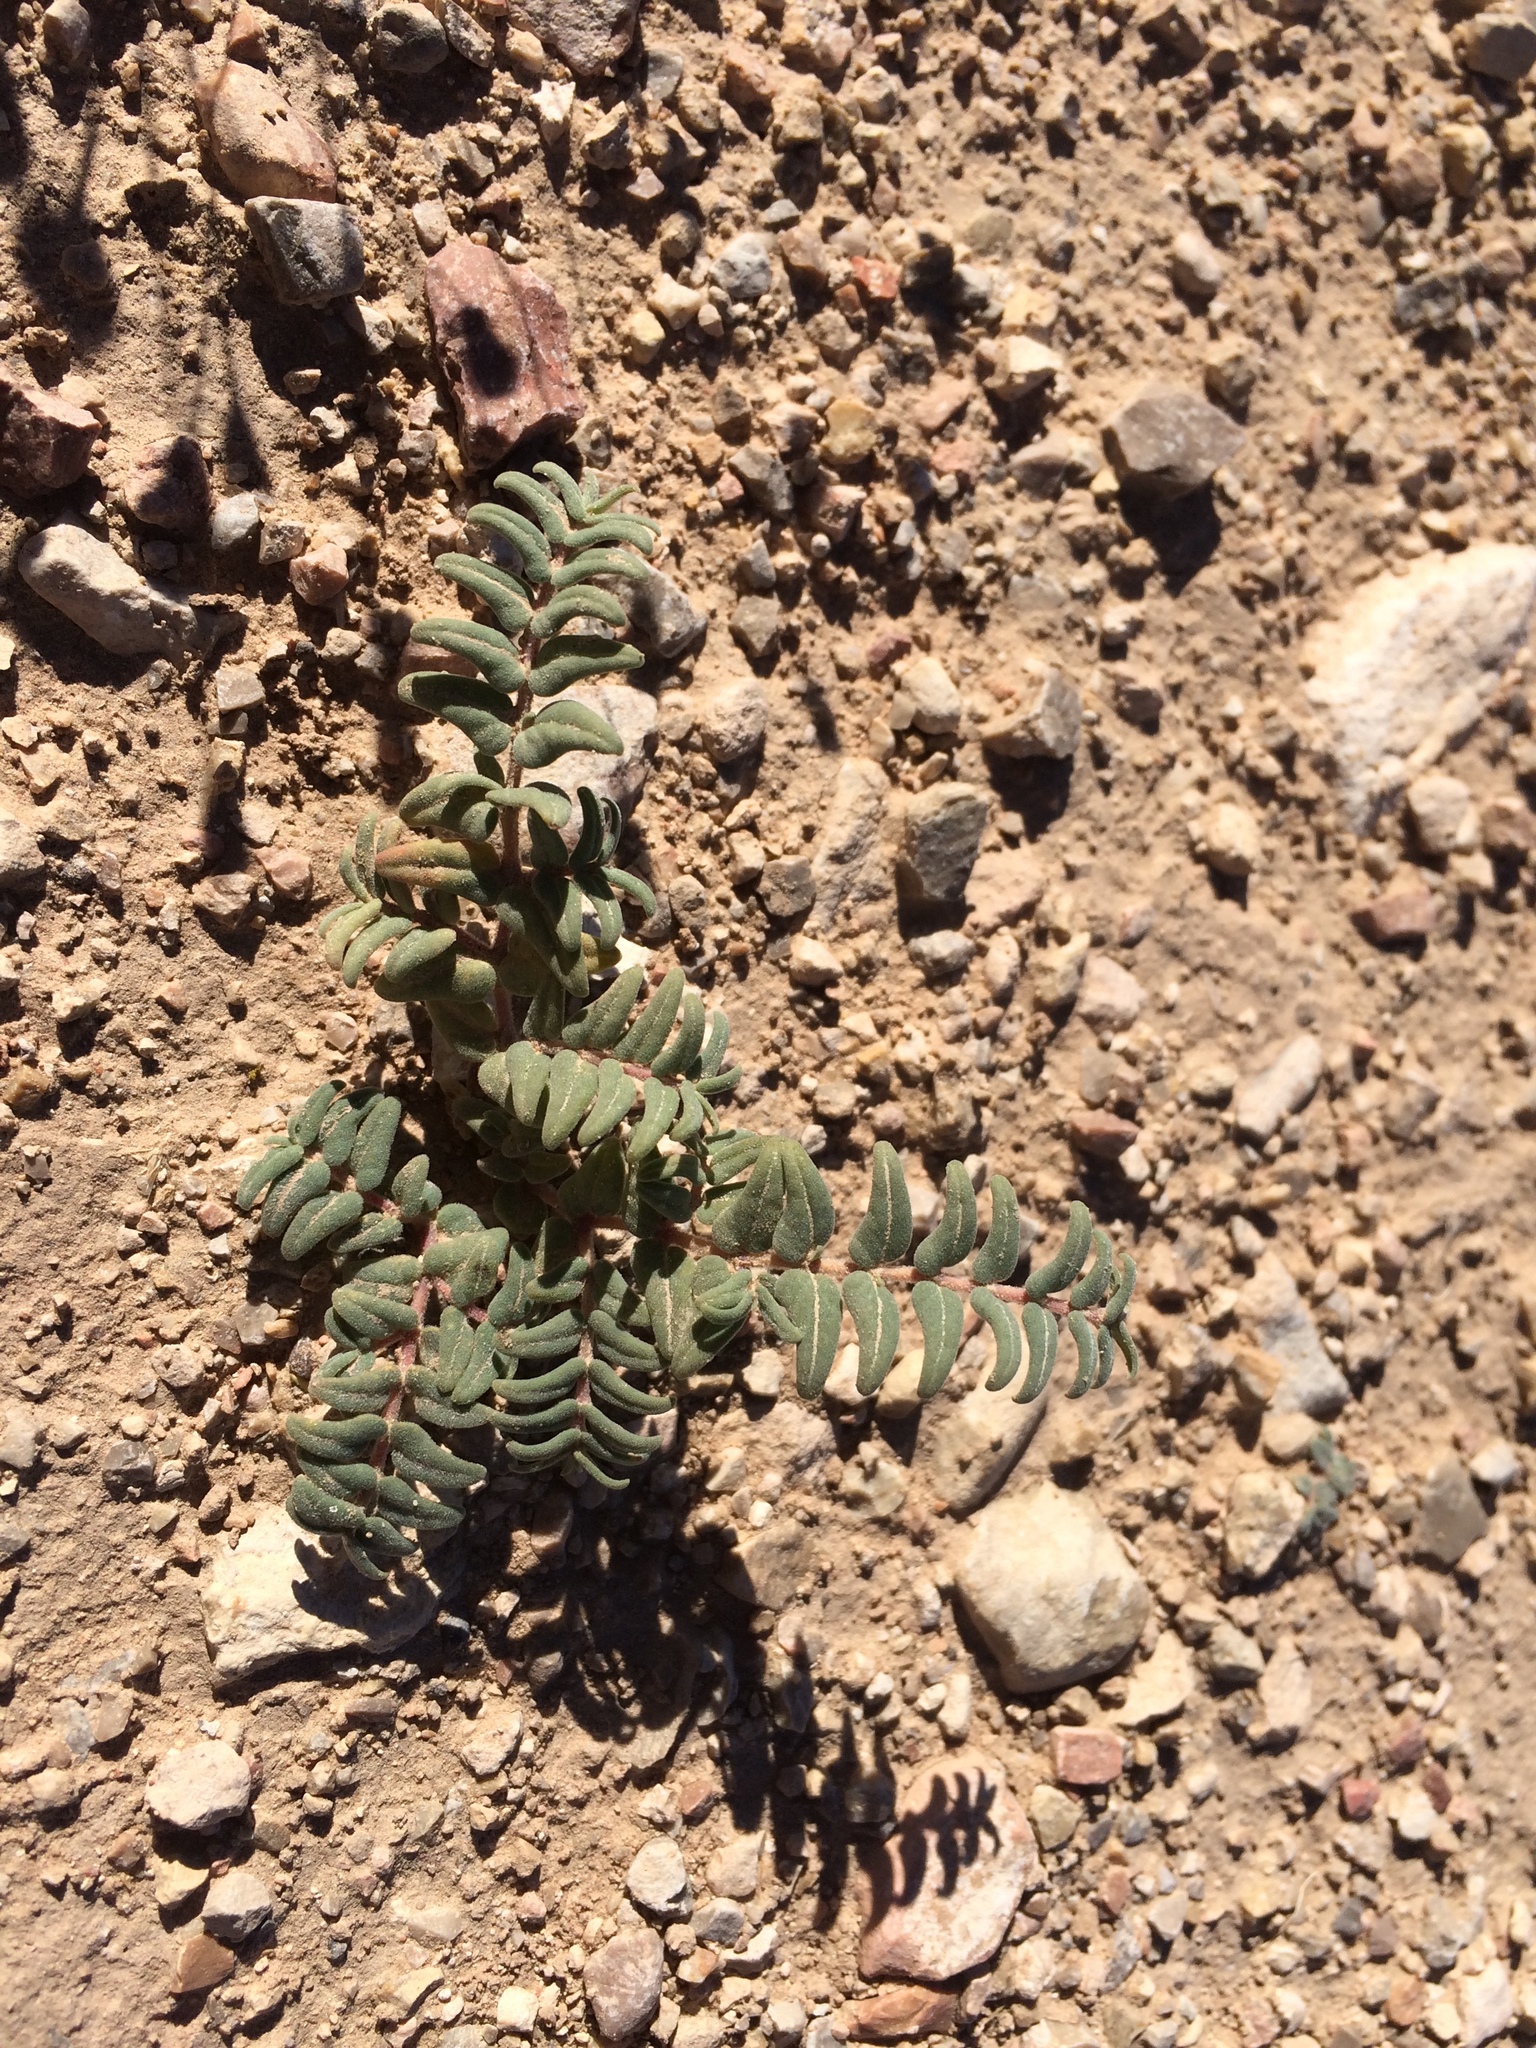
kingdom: Plantae
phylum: Tracheophyta
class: Magnoliopsida
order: Malpighiales
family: Euphorbiaceae
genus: Euphorbia
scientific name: Euphorbia lata
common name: Hoary euphorbia
